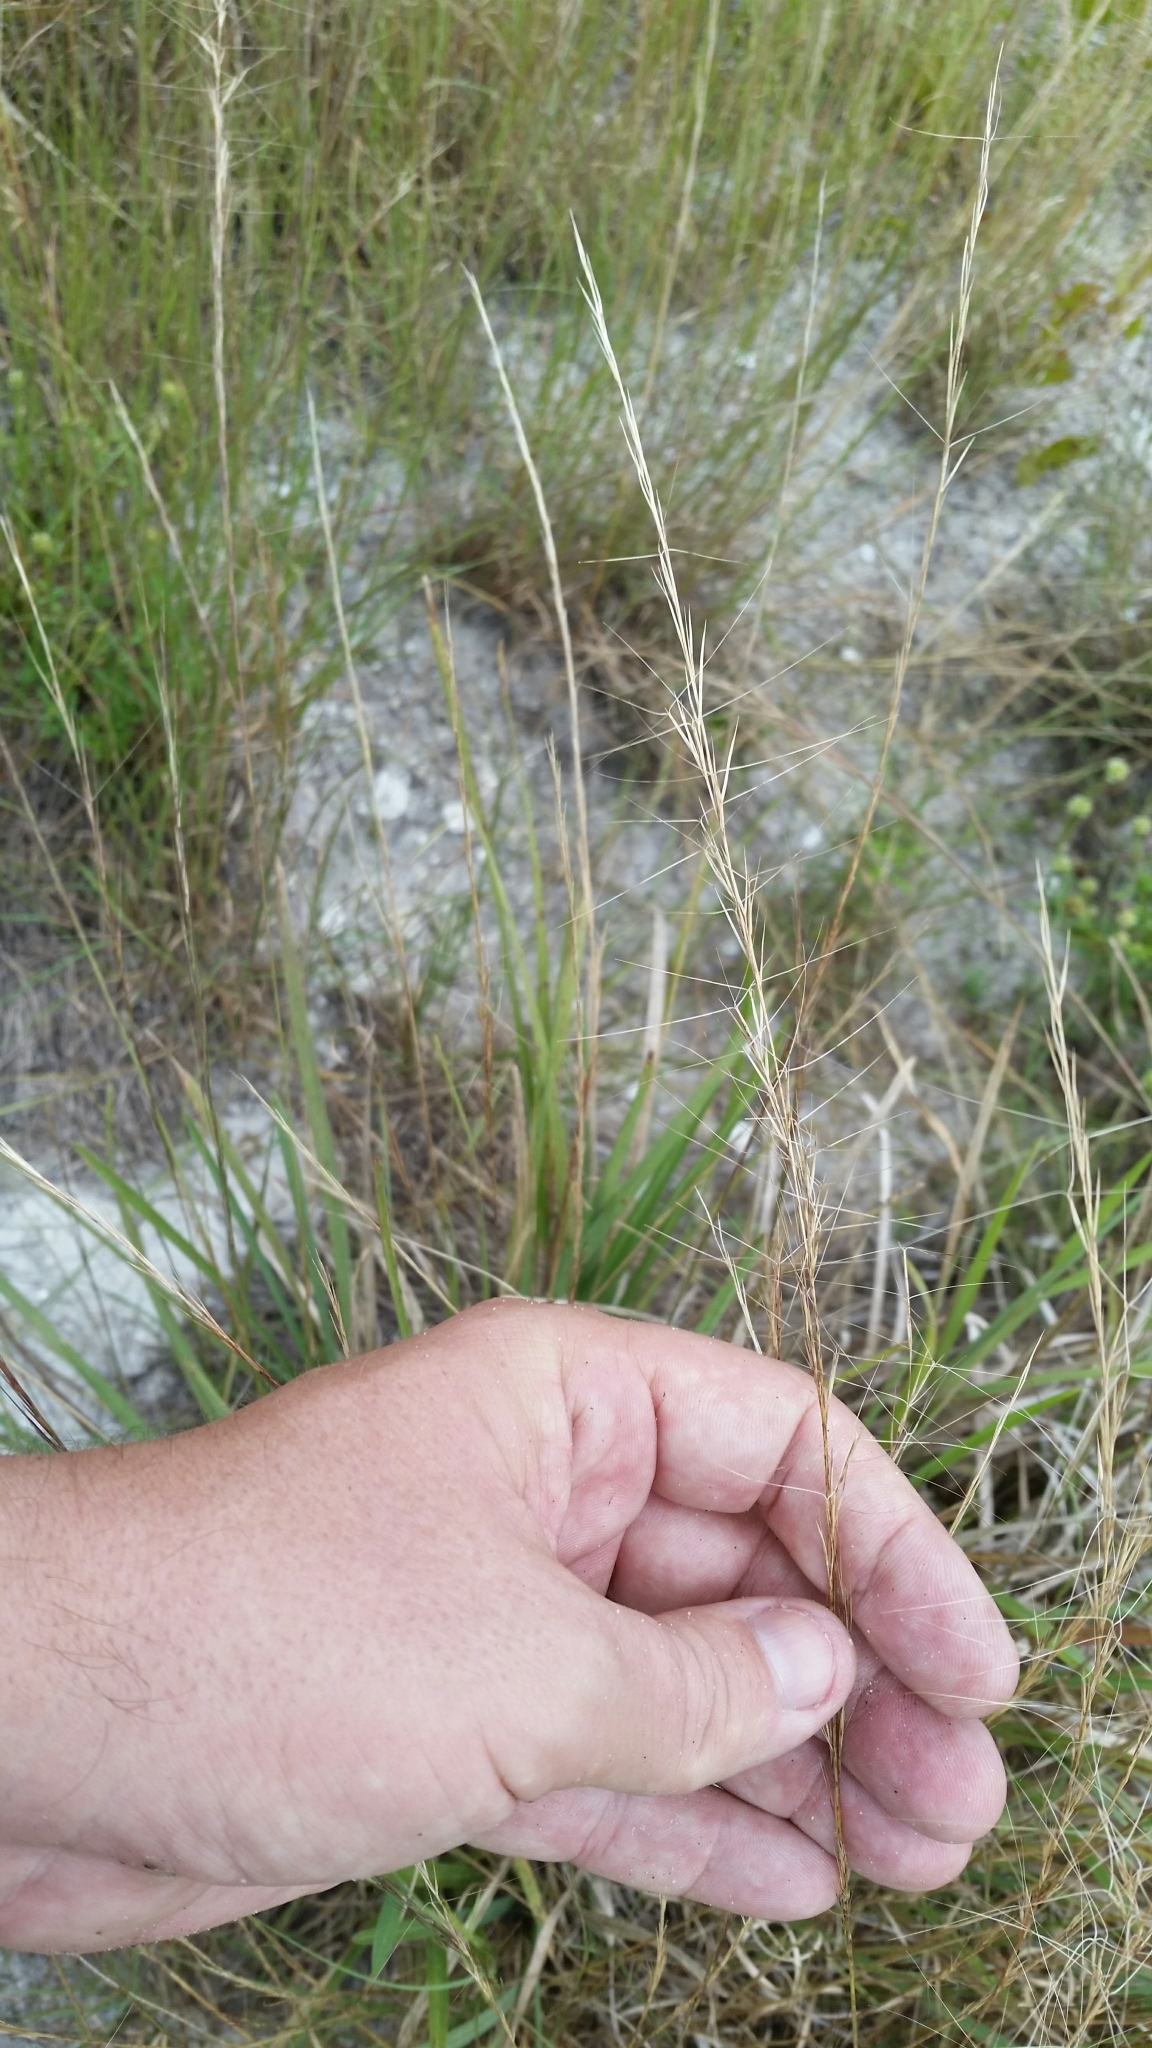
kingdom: Plantae
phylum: Tracheophyta
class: Liliopsida
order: Poales
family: Poaceae
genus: Aristida
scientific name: Aristida purpurascens
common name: Arrow-feather
